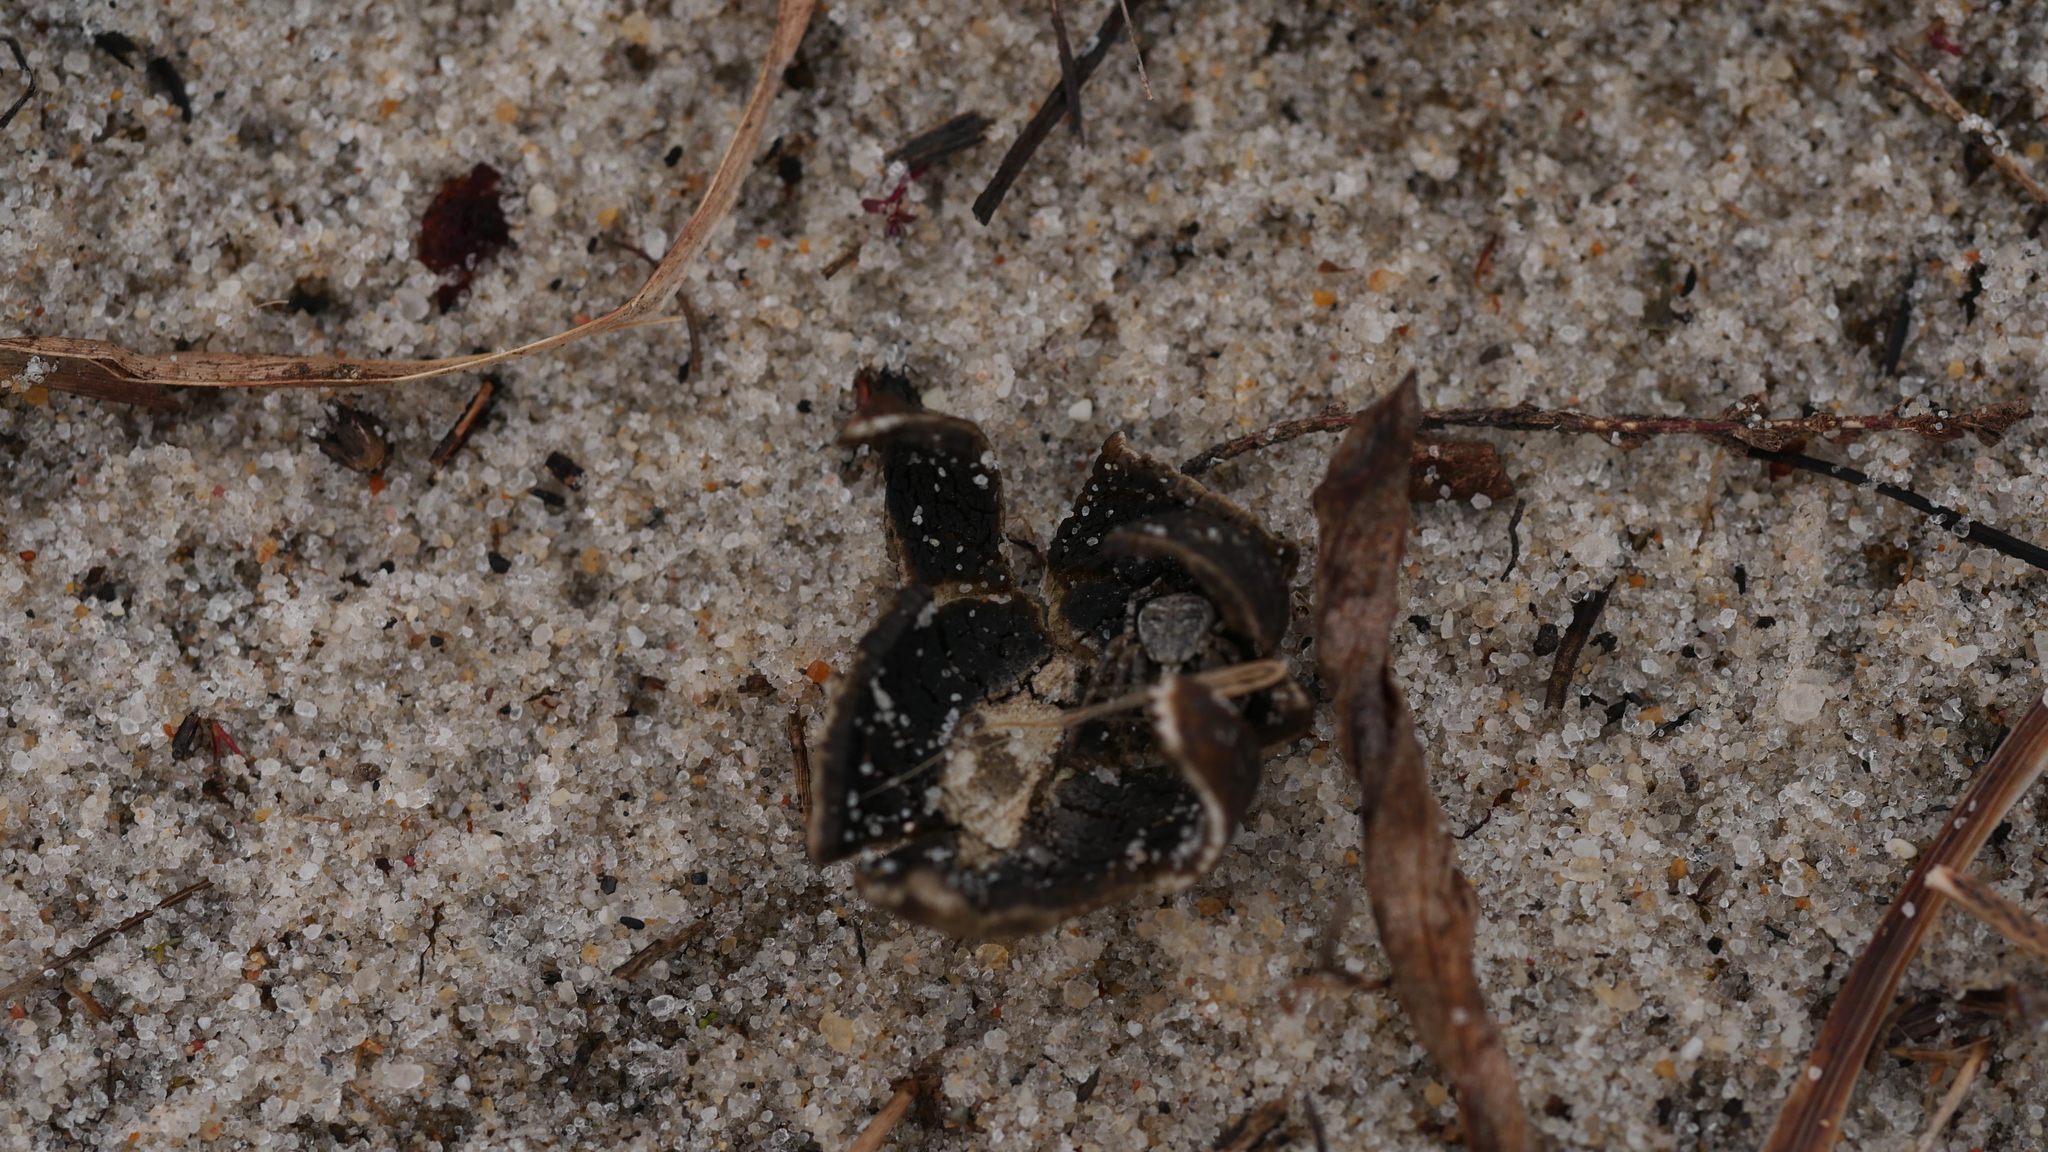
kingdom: Fungi
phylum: Basidiomycota
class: Agaricomycetes
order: Boletales
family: Diplocystidiaceae
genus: Astraeus
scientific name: Astraeus smithii
